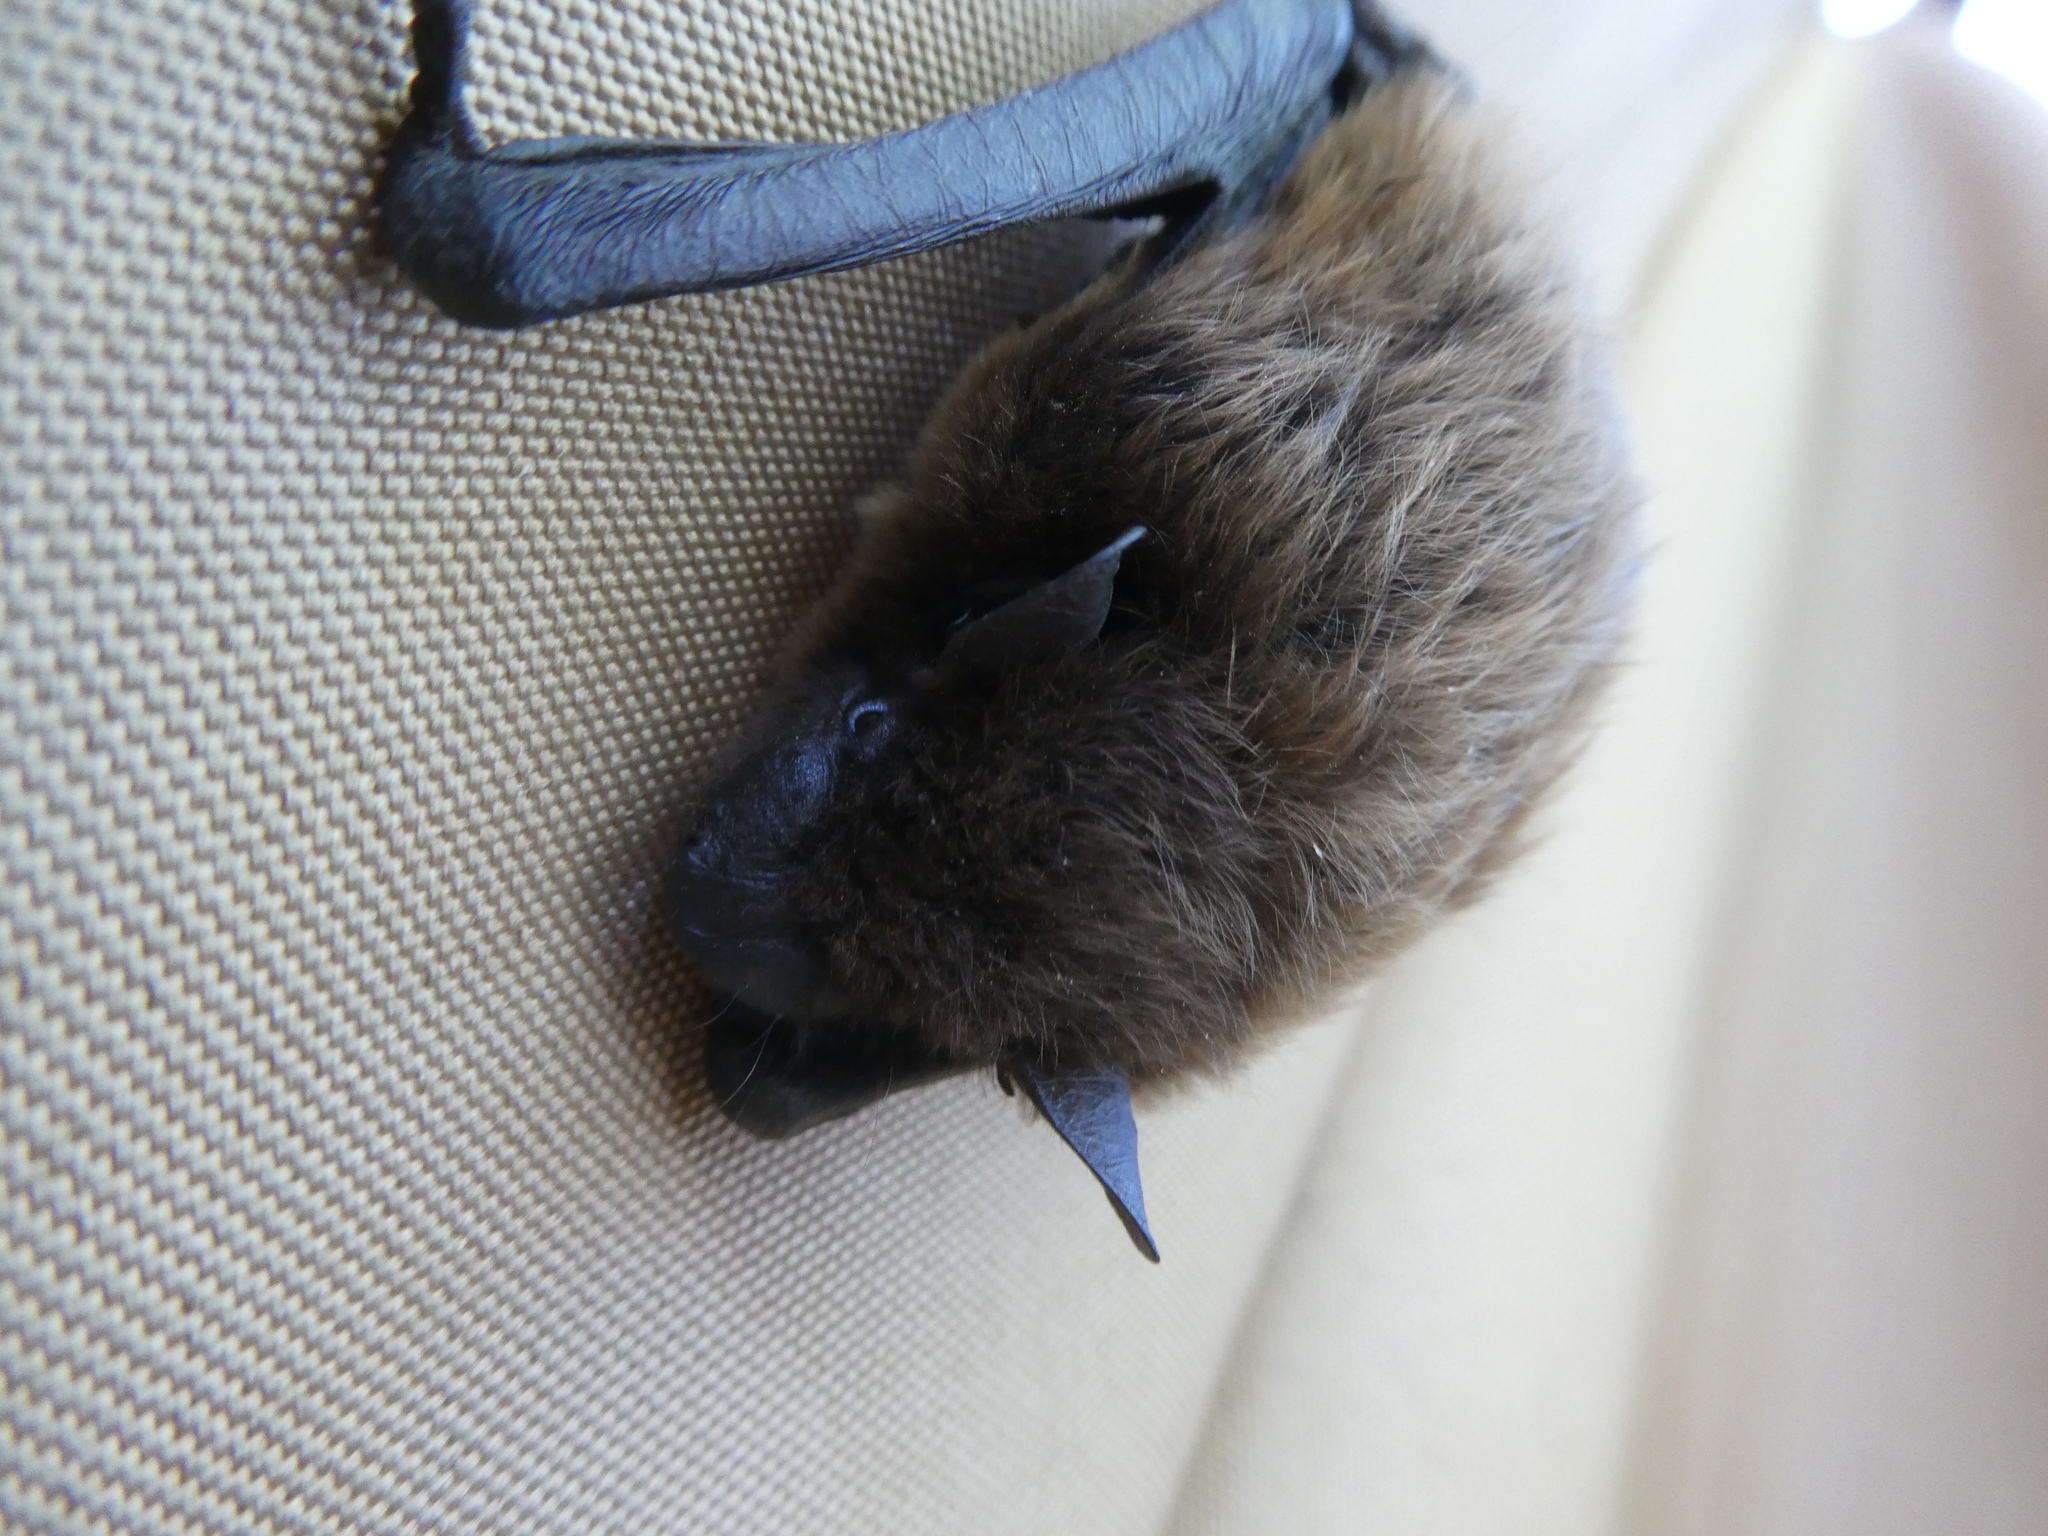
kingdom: Animalia
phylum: Chordata
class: Mammalia
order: Chiroptera
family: Vespertilionidae
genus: Nycticeius
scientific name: Nycticeius humeralis
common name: Evening bat
